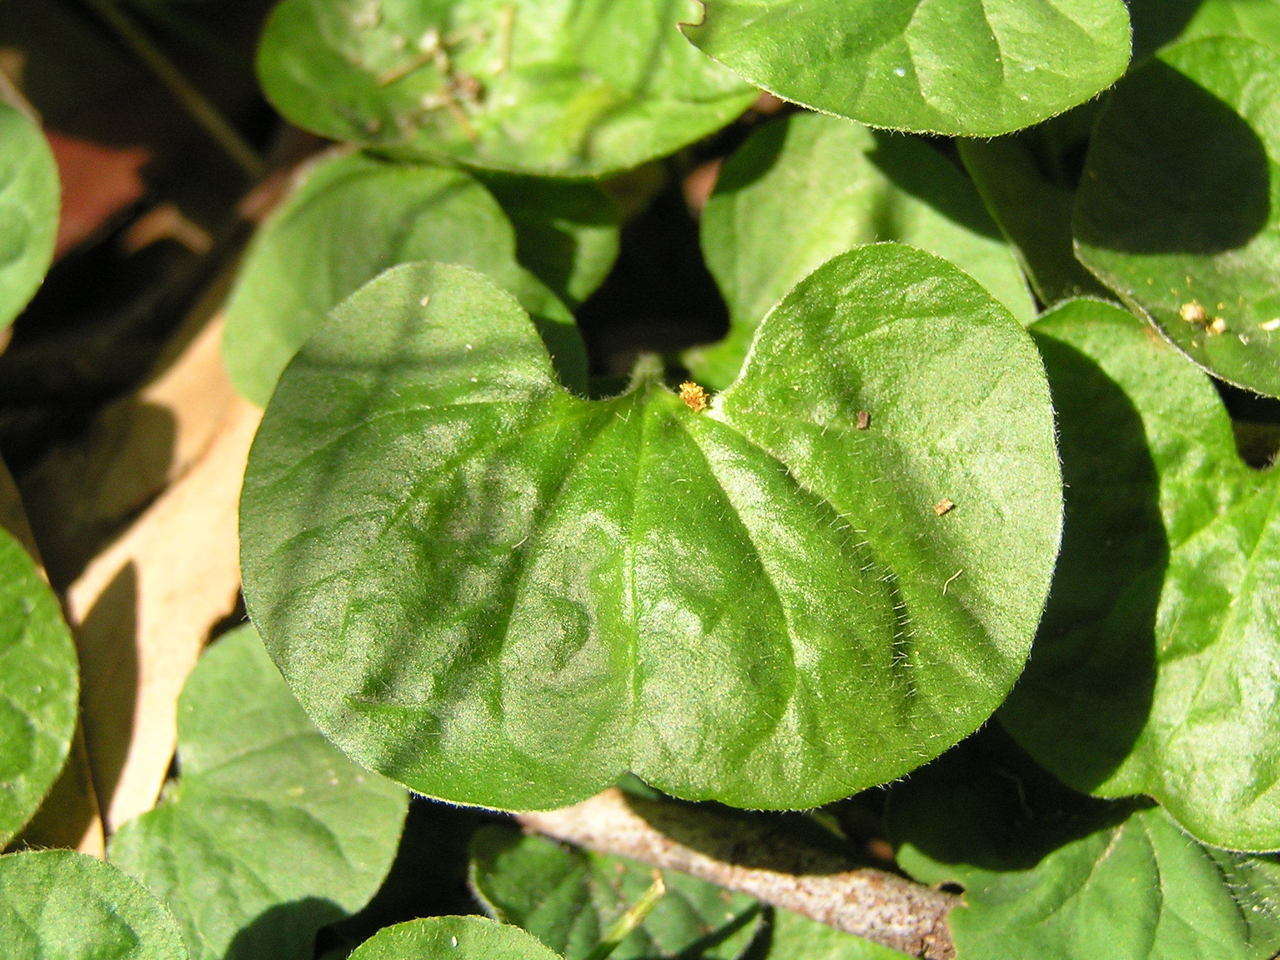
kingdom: Plantae
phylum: Tracheophyta
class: Magnoliopsida
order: Solanales
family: Convolvulaceae
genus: Dichondra
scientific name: Dichondra repens
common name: Kidneyweed
